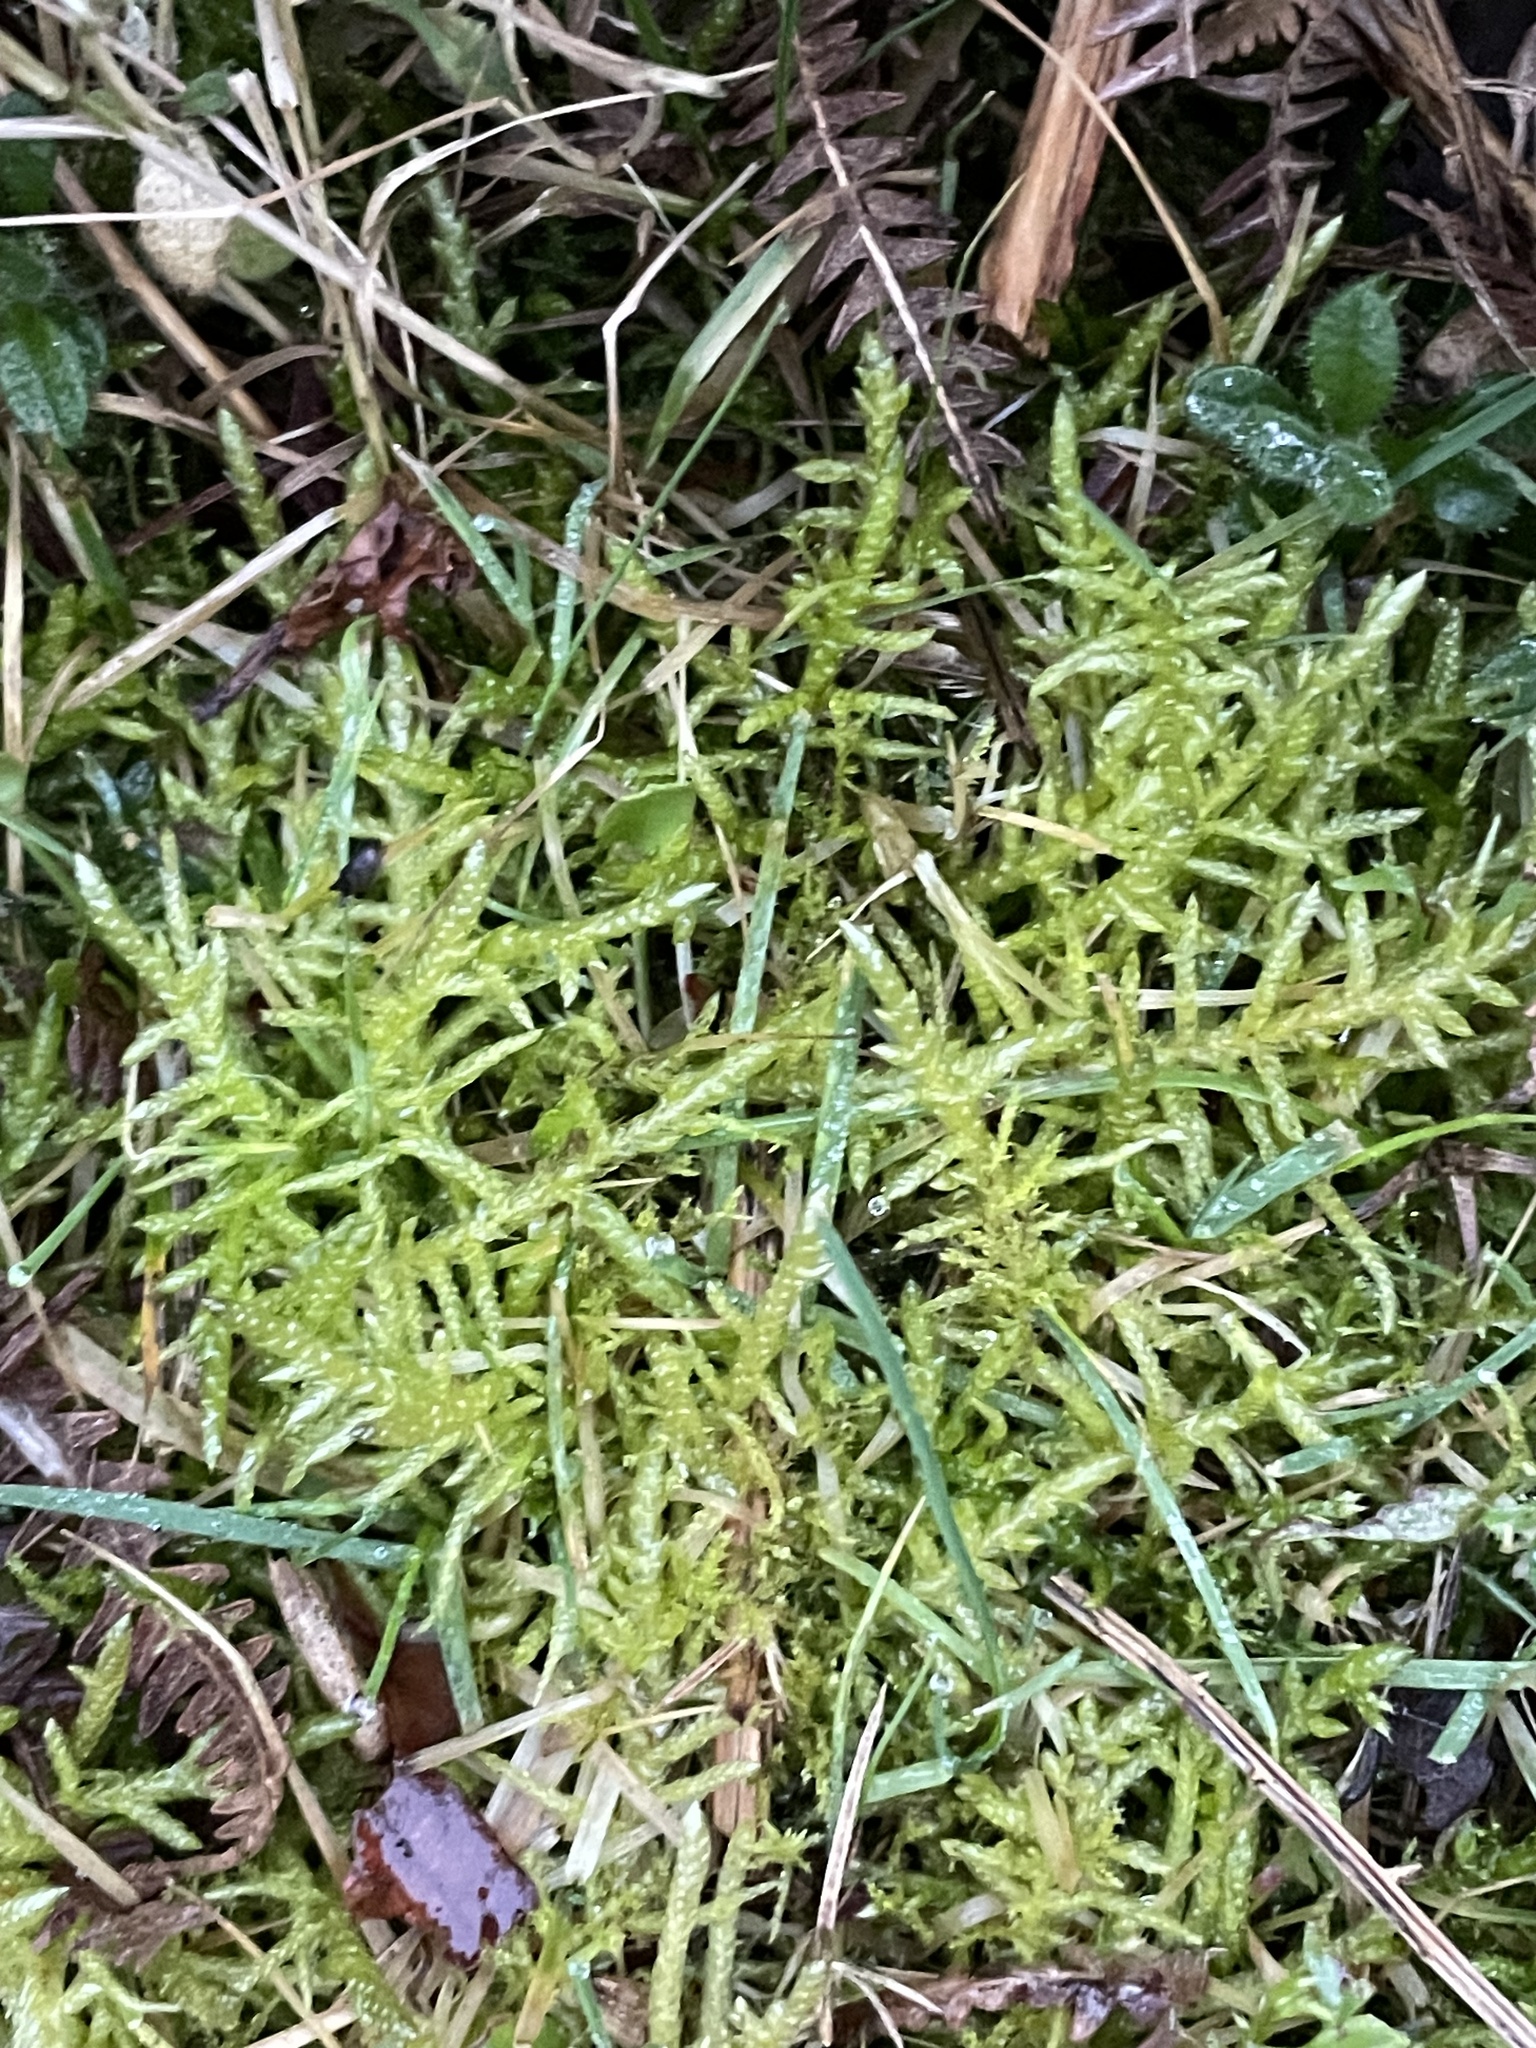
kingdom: Plantae
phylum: Bryophyta
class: Bryopsida
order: Hypnales
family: Brachytheciaceae
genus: Pseudoscleropodium
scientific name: Pseudoscleropodium purum
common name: Neat feather-moss
